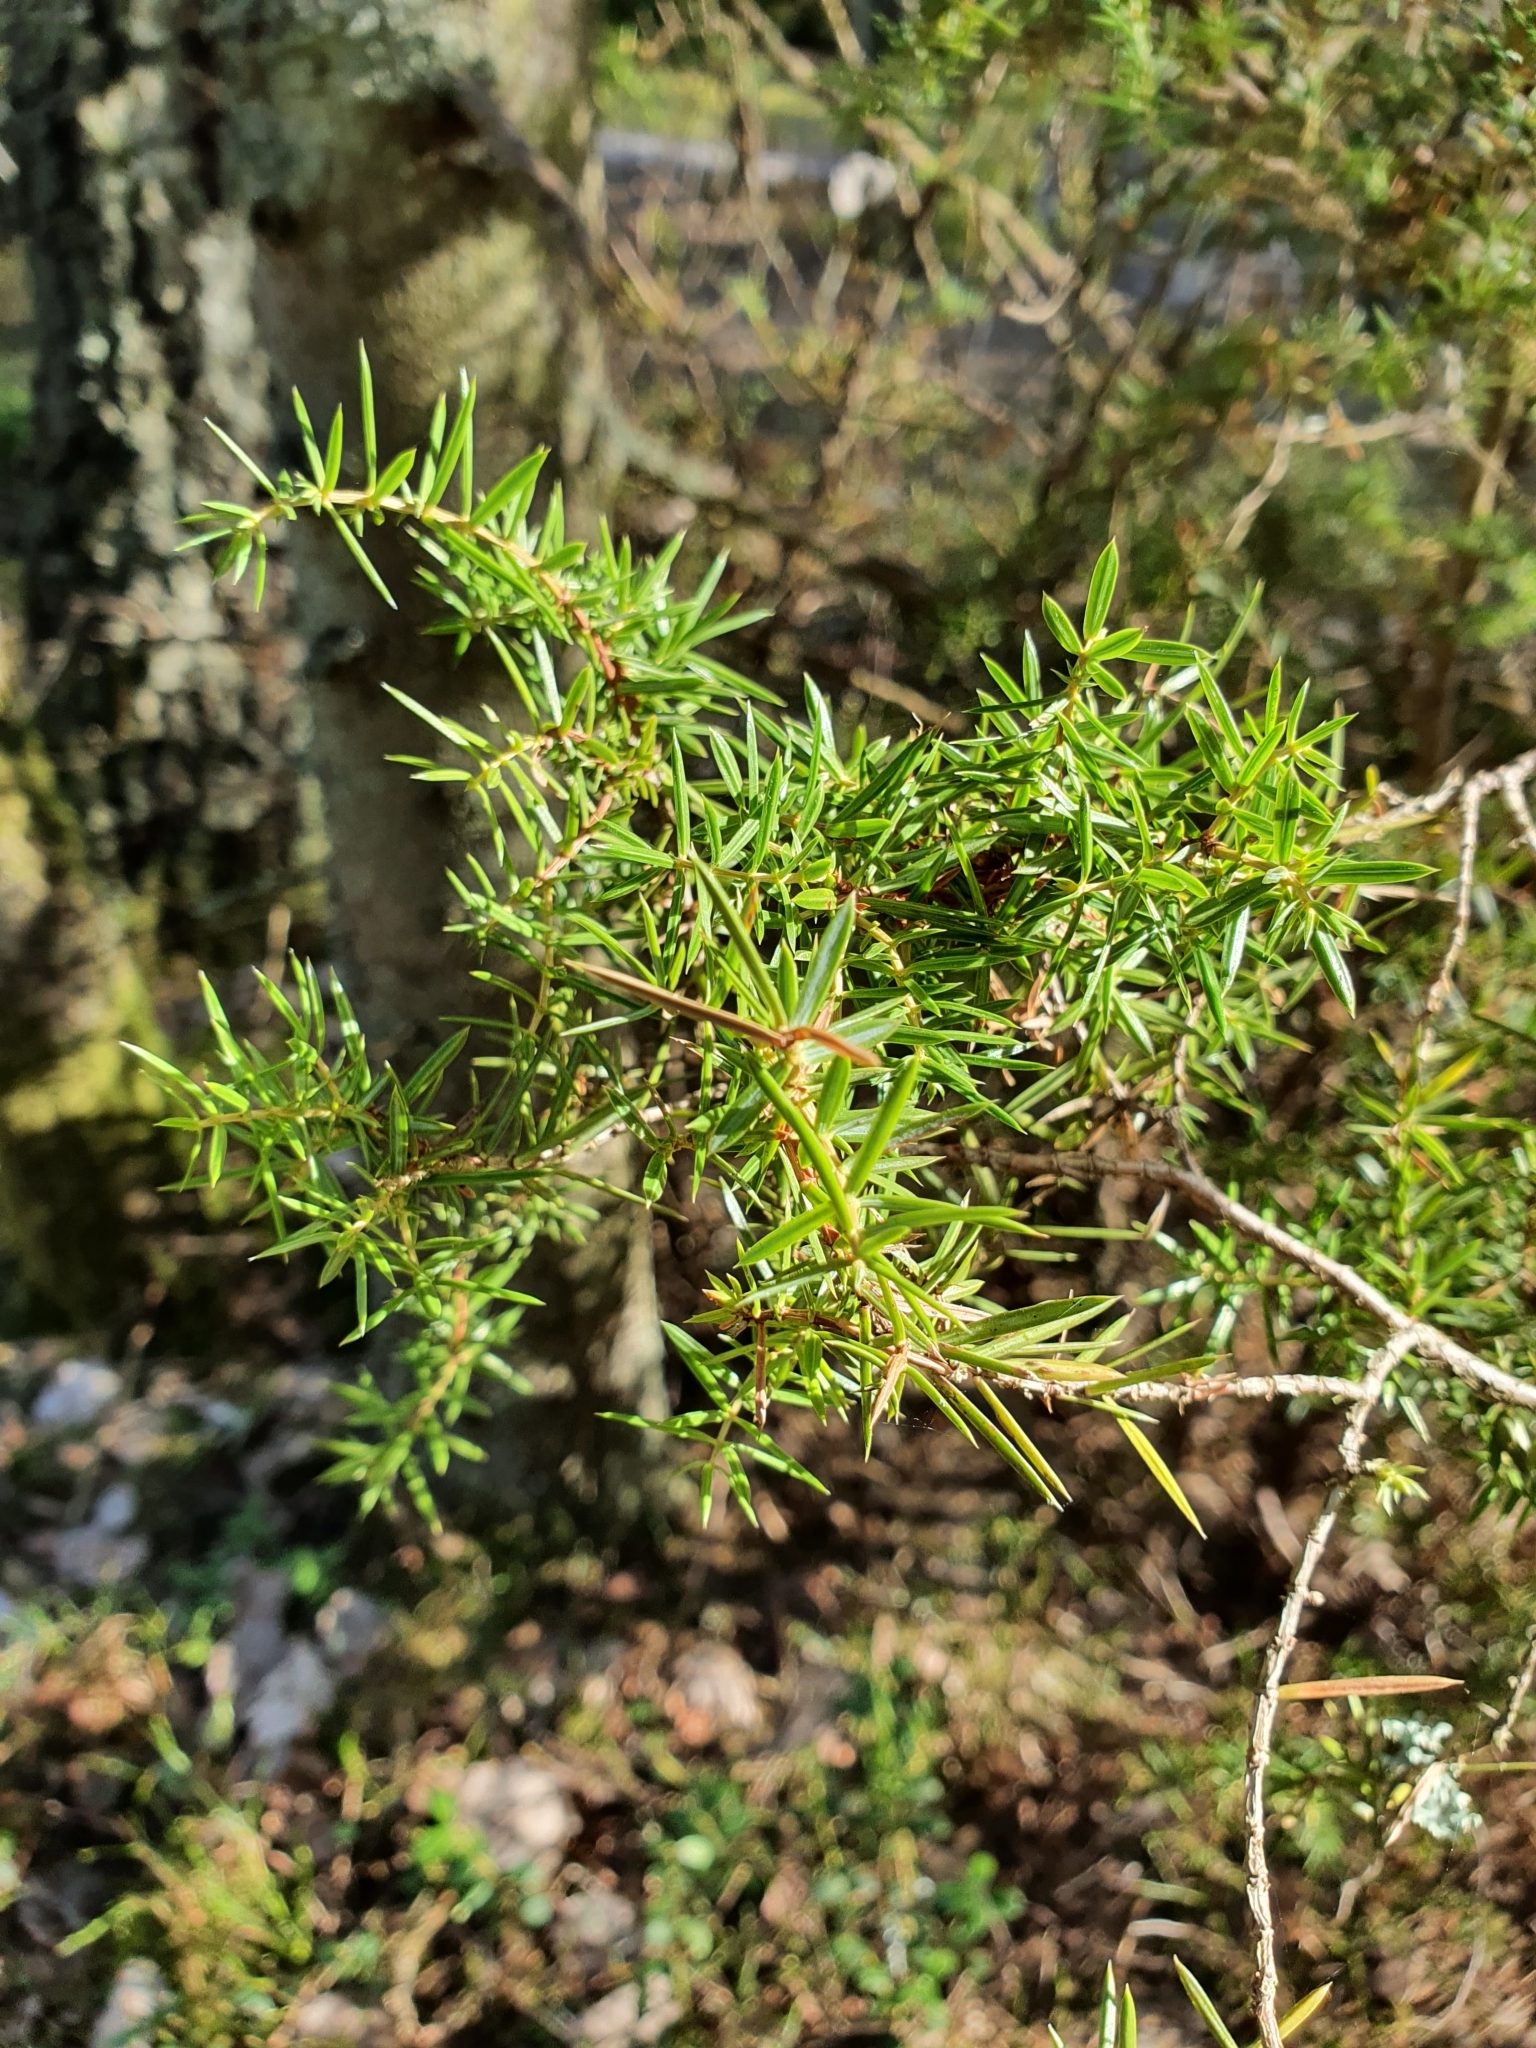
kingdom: Plantae
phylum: Tracheophyta
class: Pinopsida
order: Pinales
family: Cupressaceae
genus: Juniperus
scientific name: Juniperus communis
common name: Common juniper
